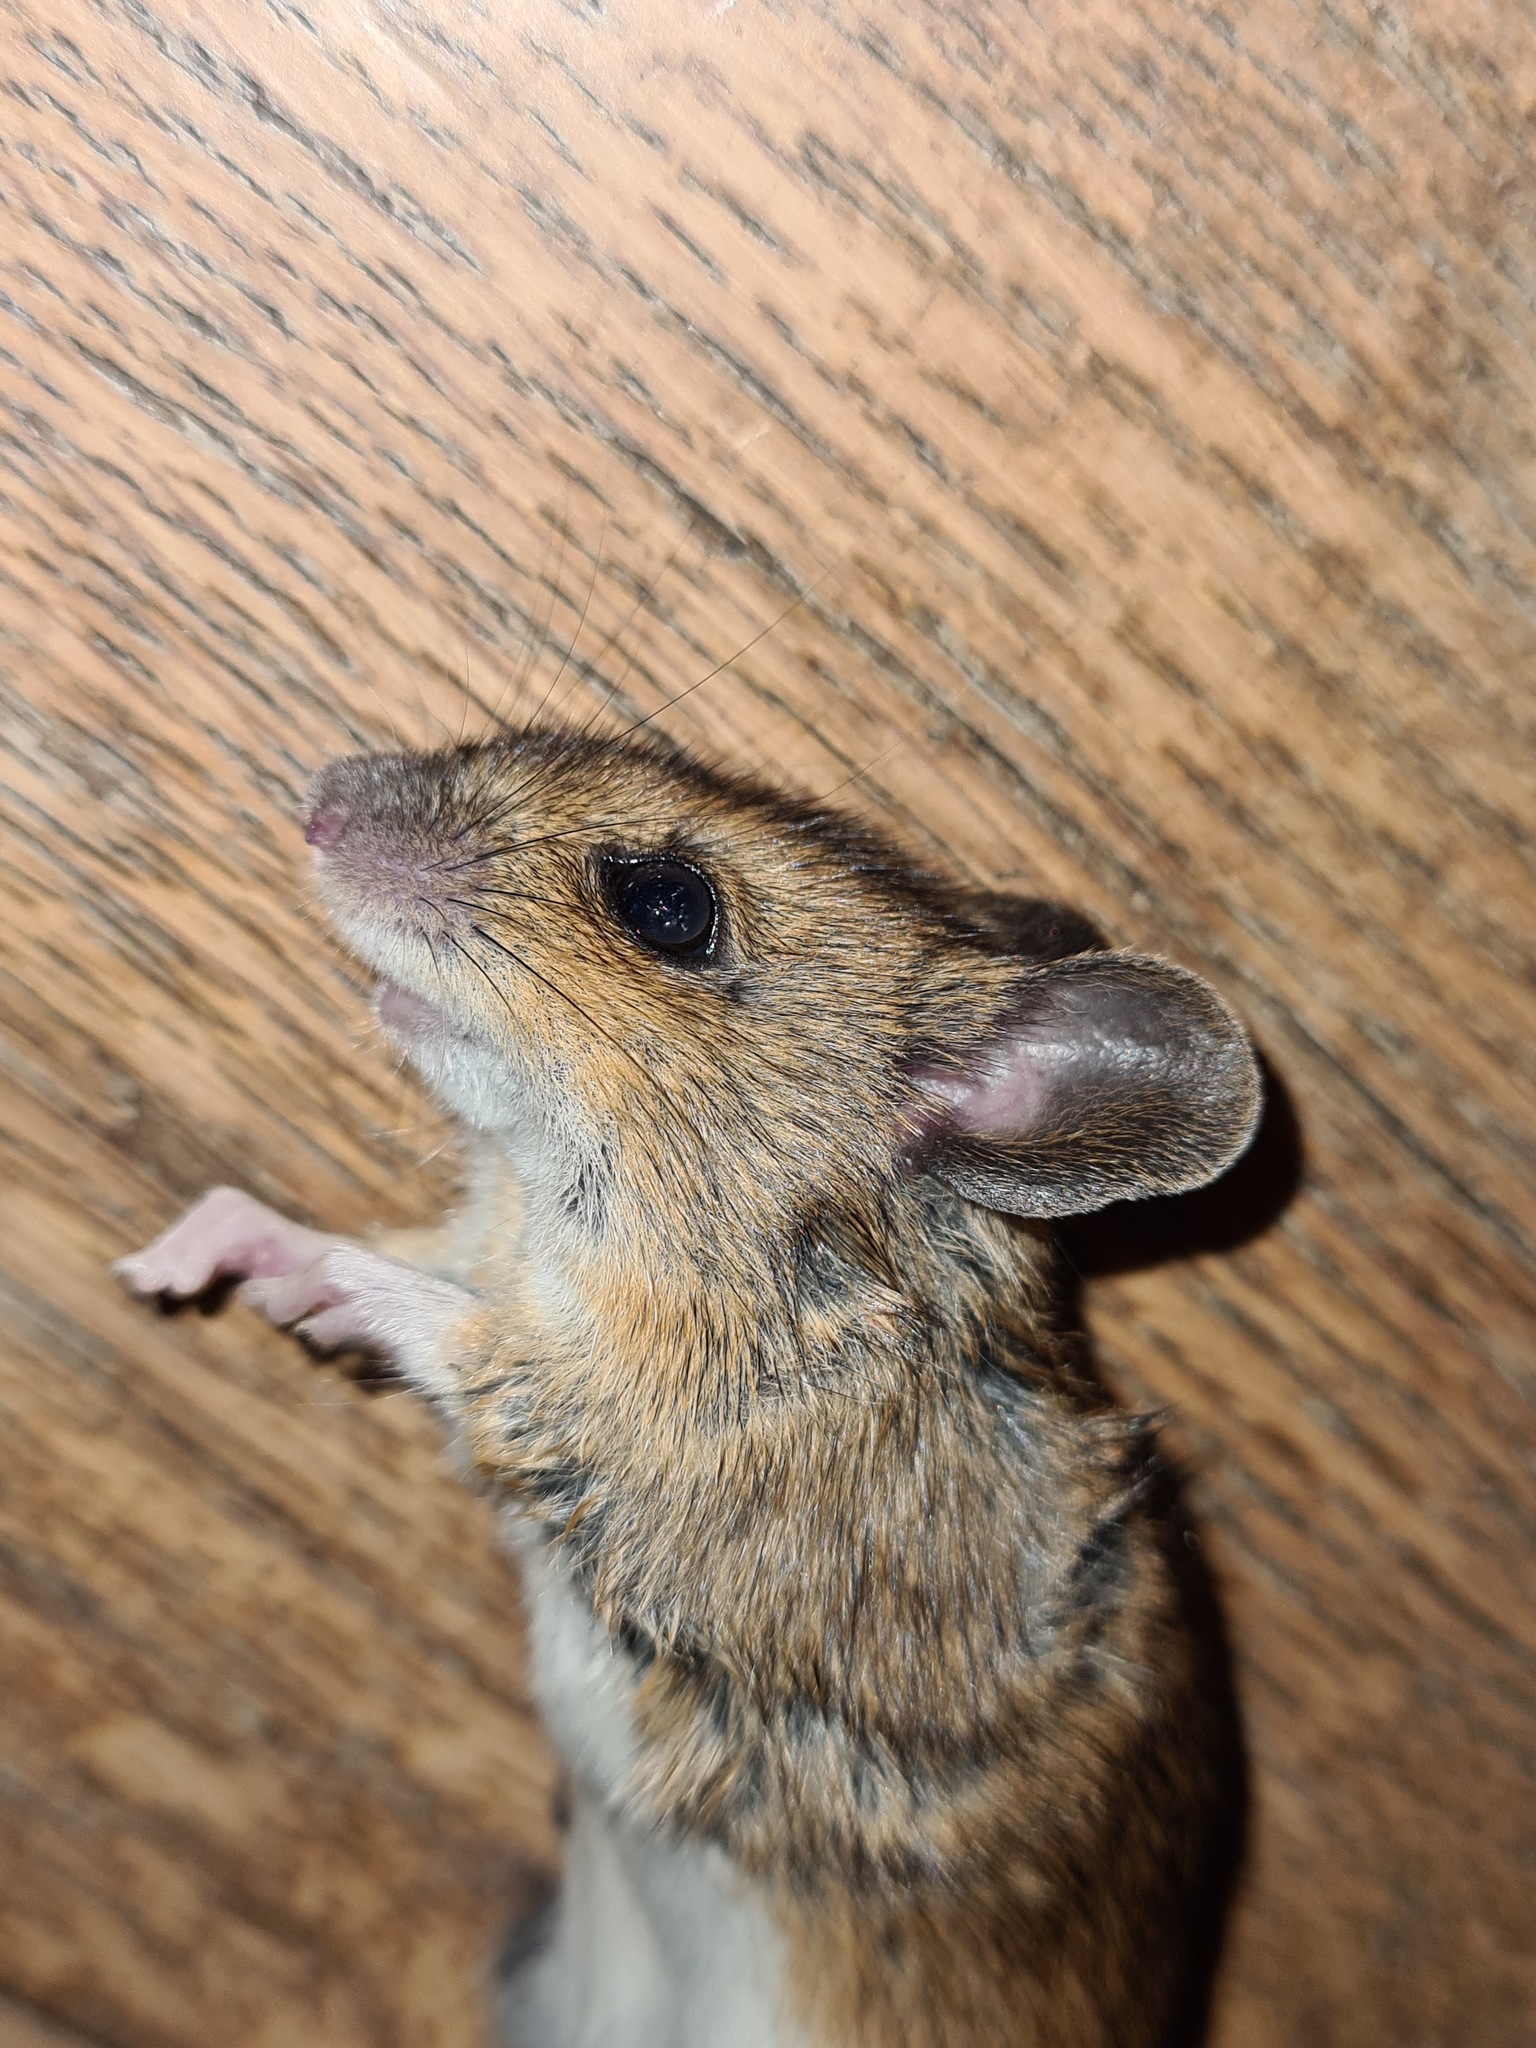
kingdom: Animalia
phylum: Chordata
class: Mammalia
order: Rodentia
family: Muridae
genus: Apodemus
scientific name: Apodemus sylvaticus
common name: Wood mouse
